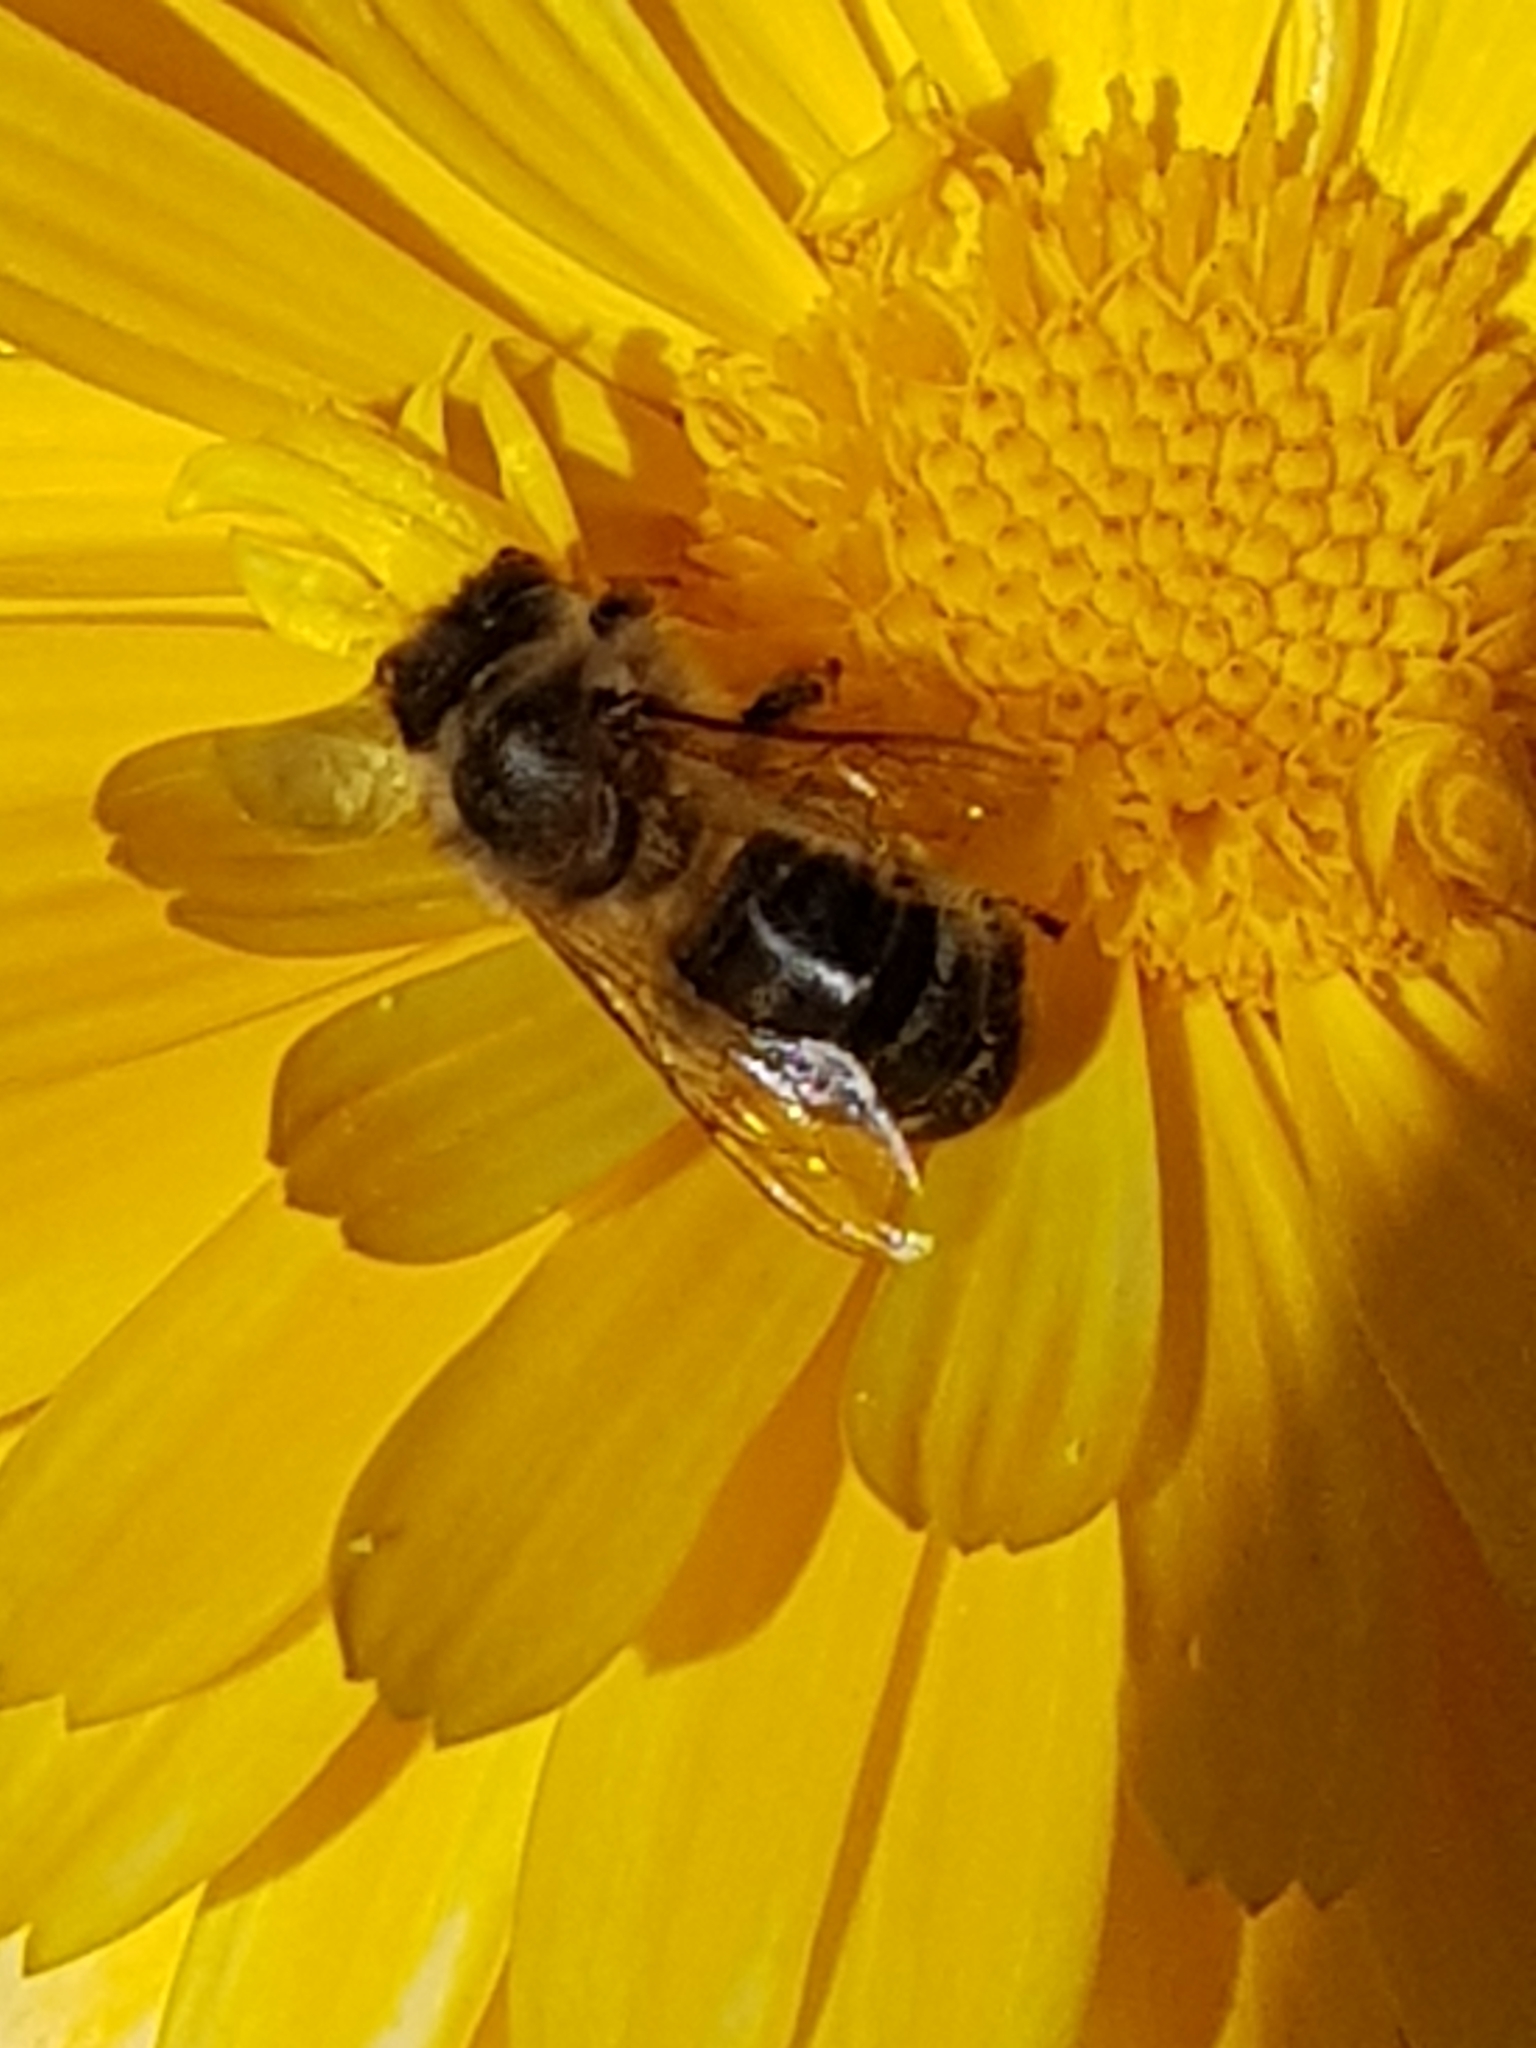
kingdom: Animalia
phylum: Arthropoda
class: Insecta
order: Hymenoptera
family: Apidae
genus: Apis
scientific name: Apis mellifera
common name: Honey bee
